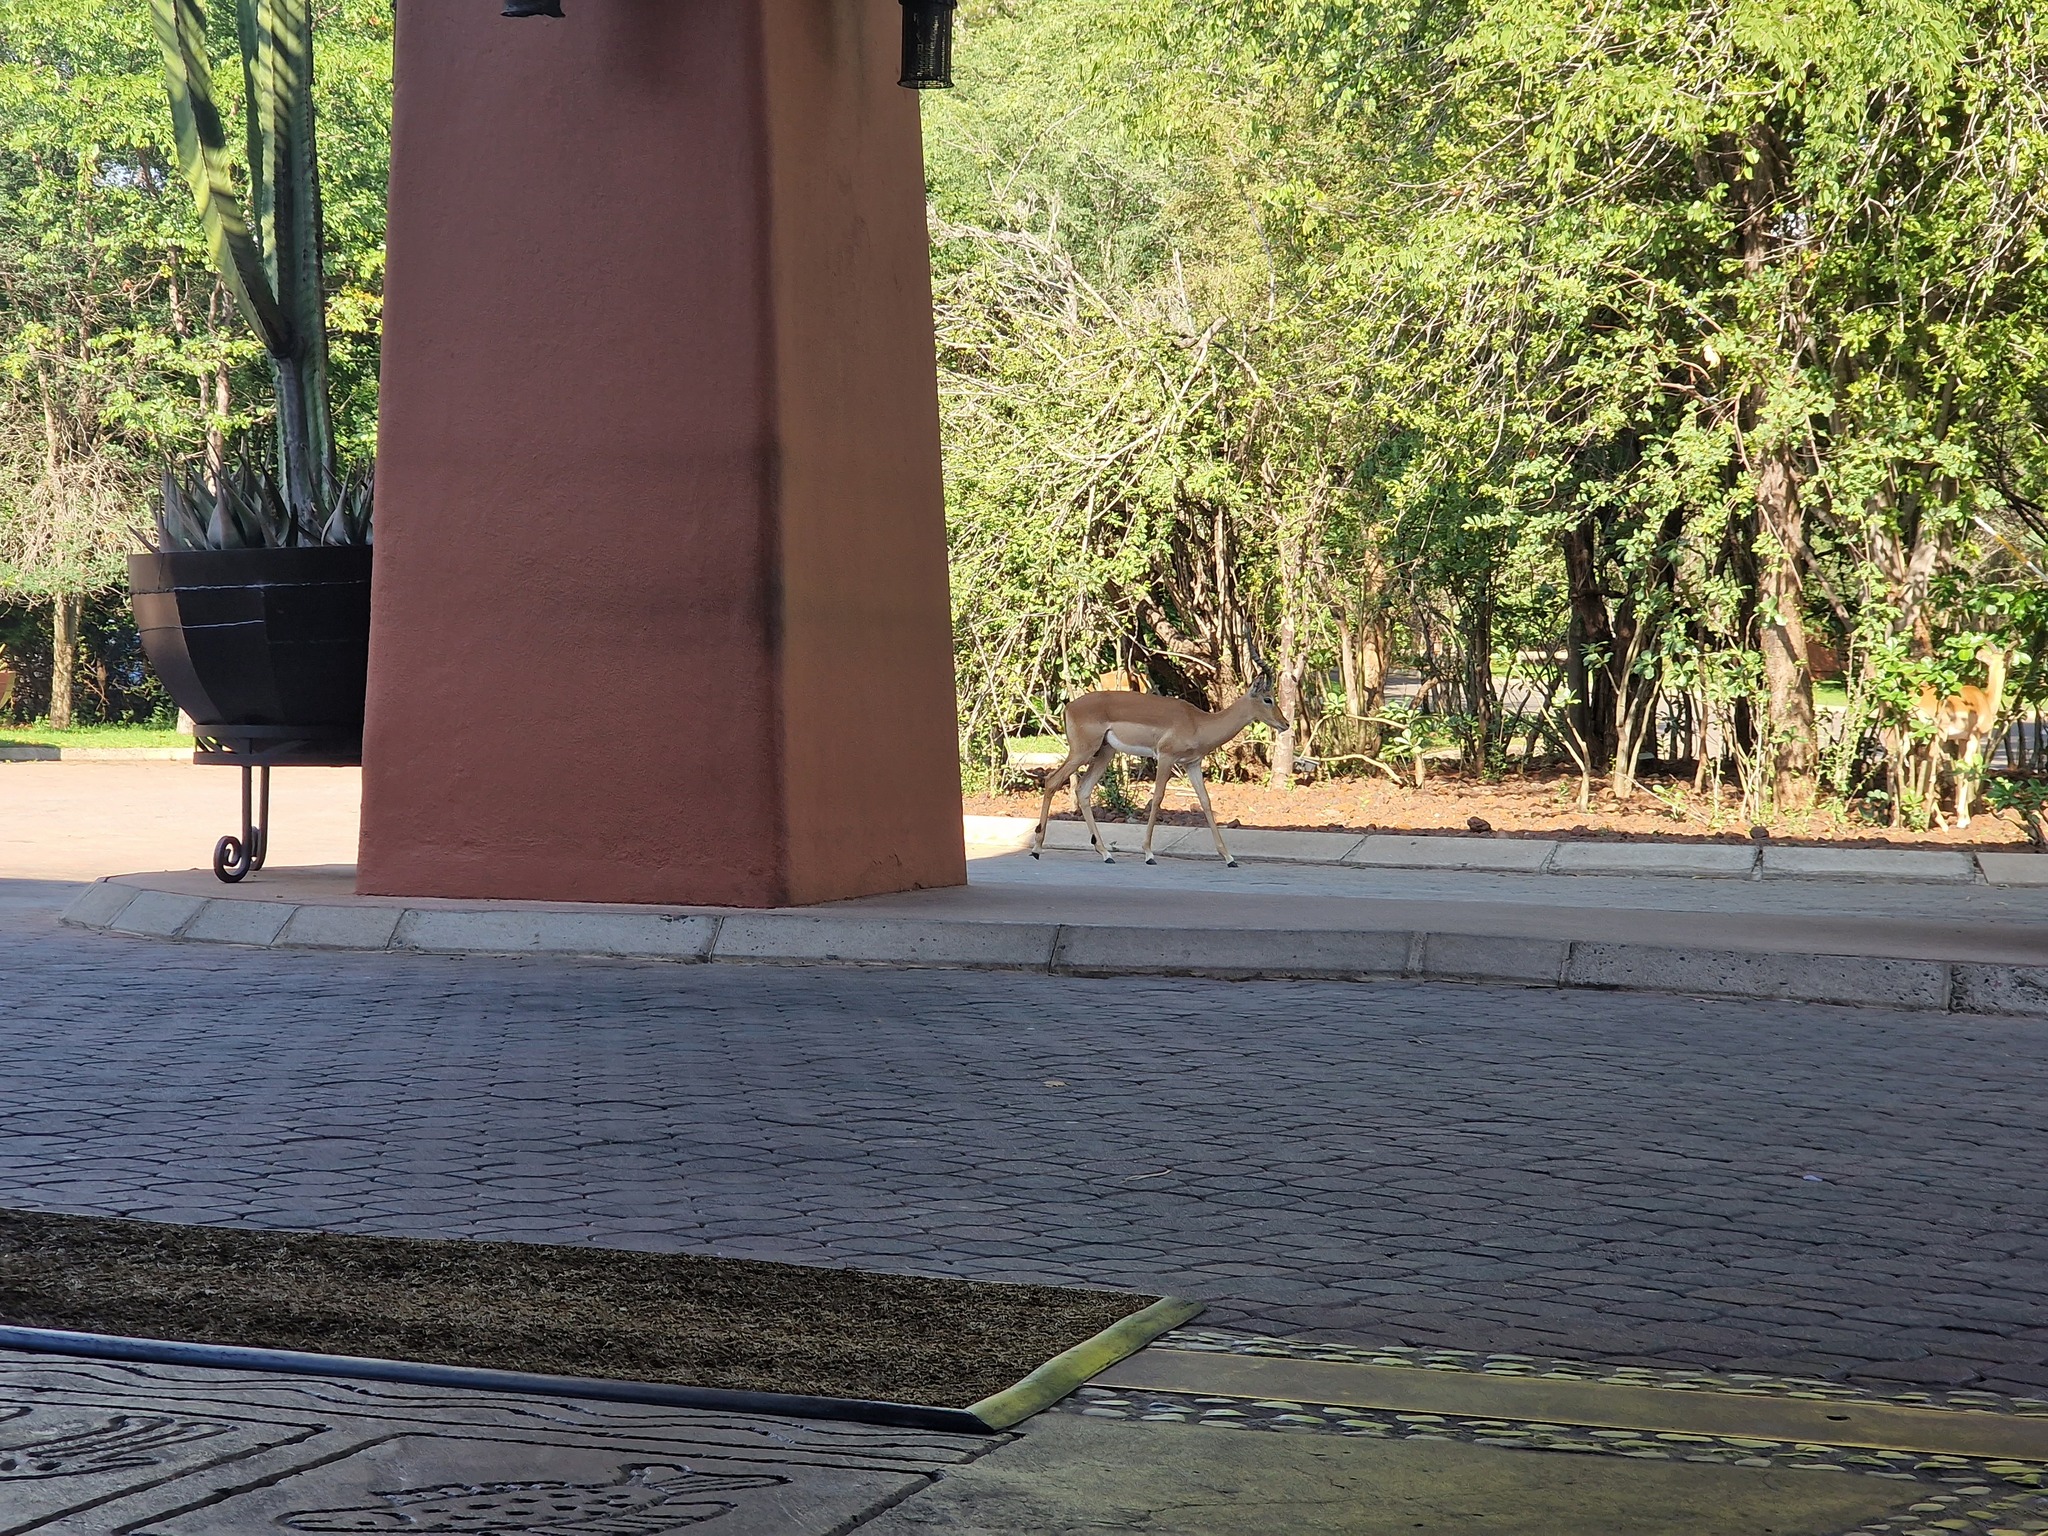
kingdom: Animalia
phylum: Chordata
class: Mammalia
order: Artiodactyla
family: Bovidae
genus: Aepyceros
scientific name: Aepyceros melampus
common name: Impala
